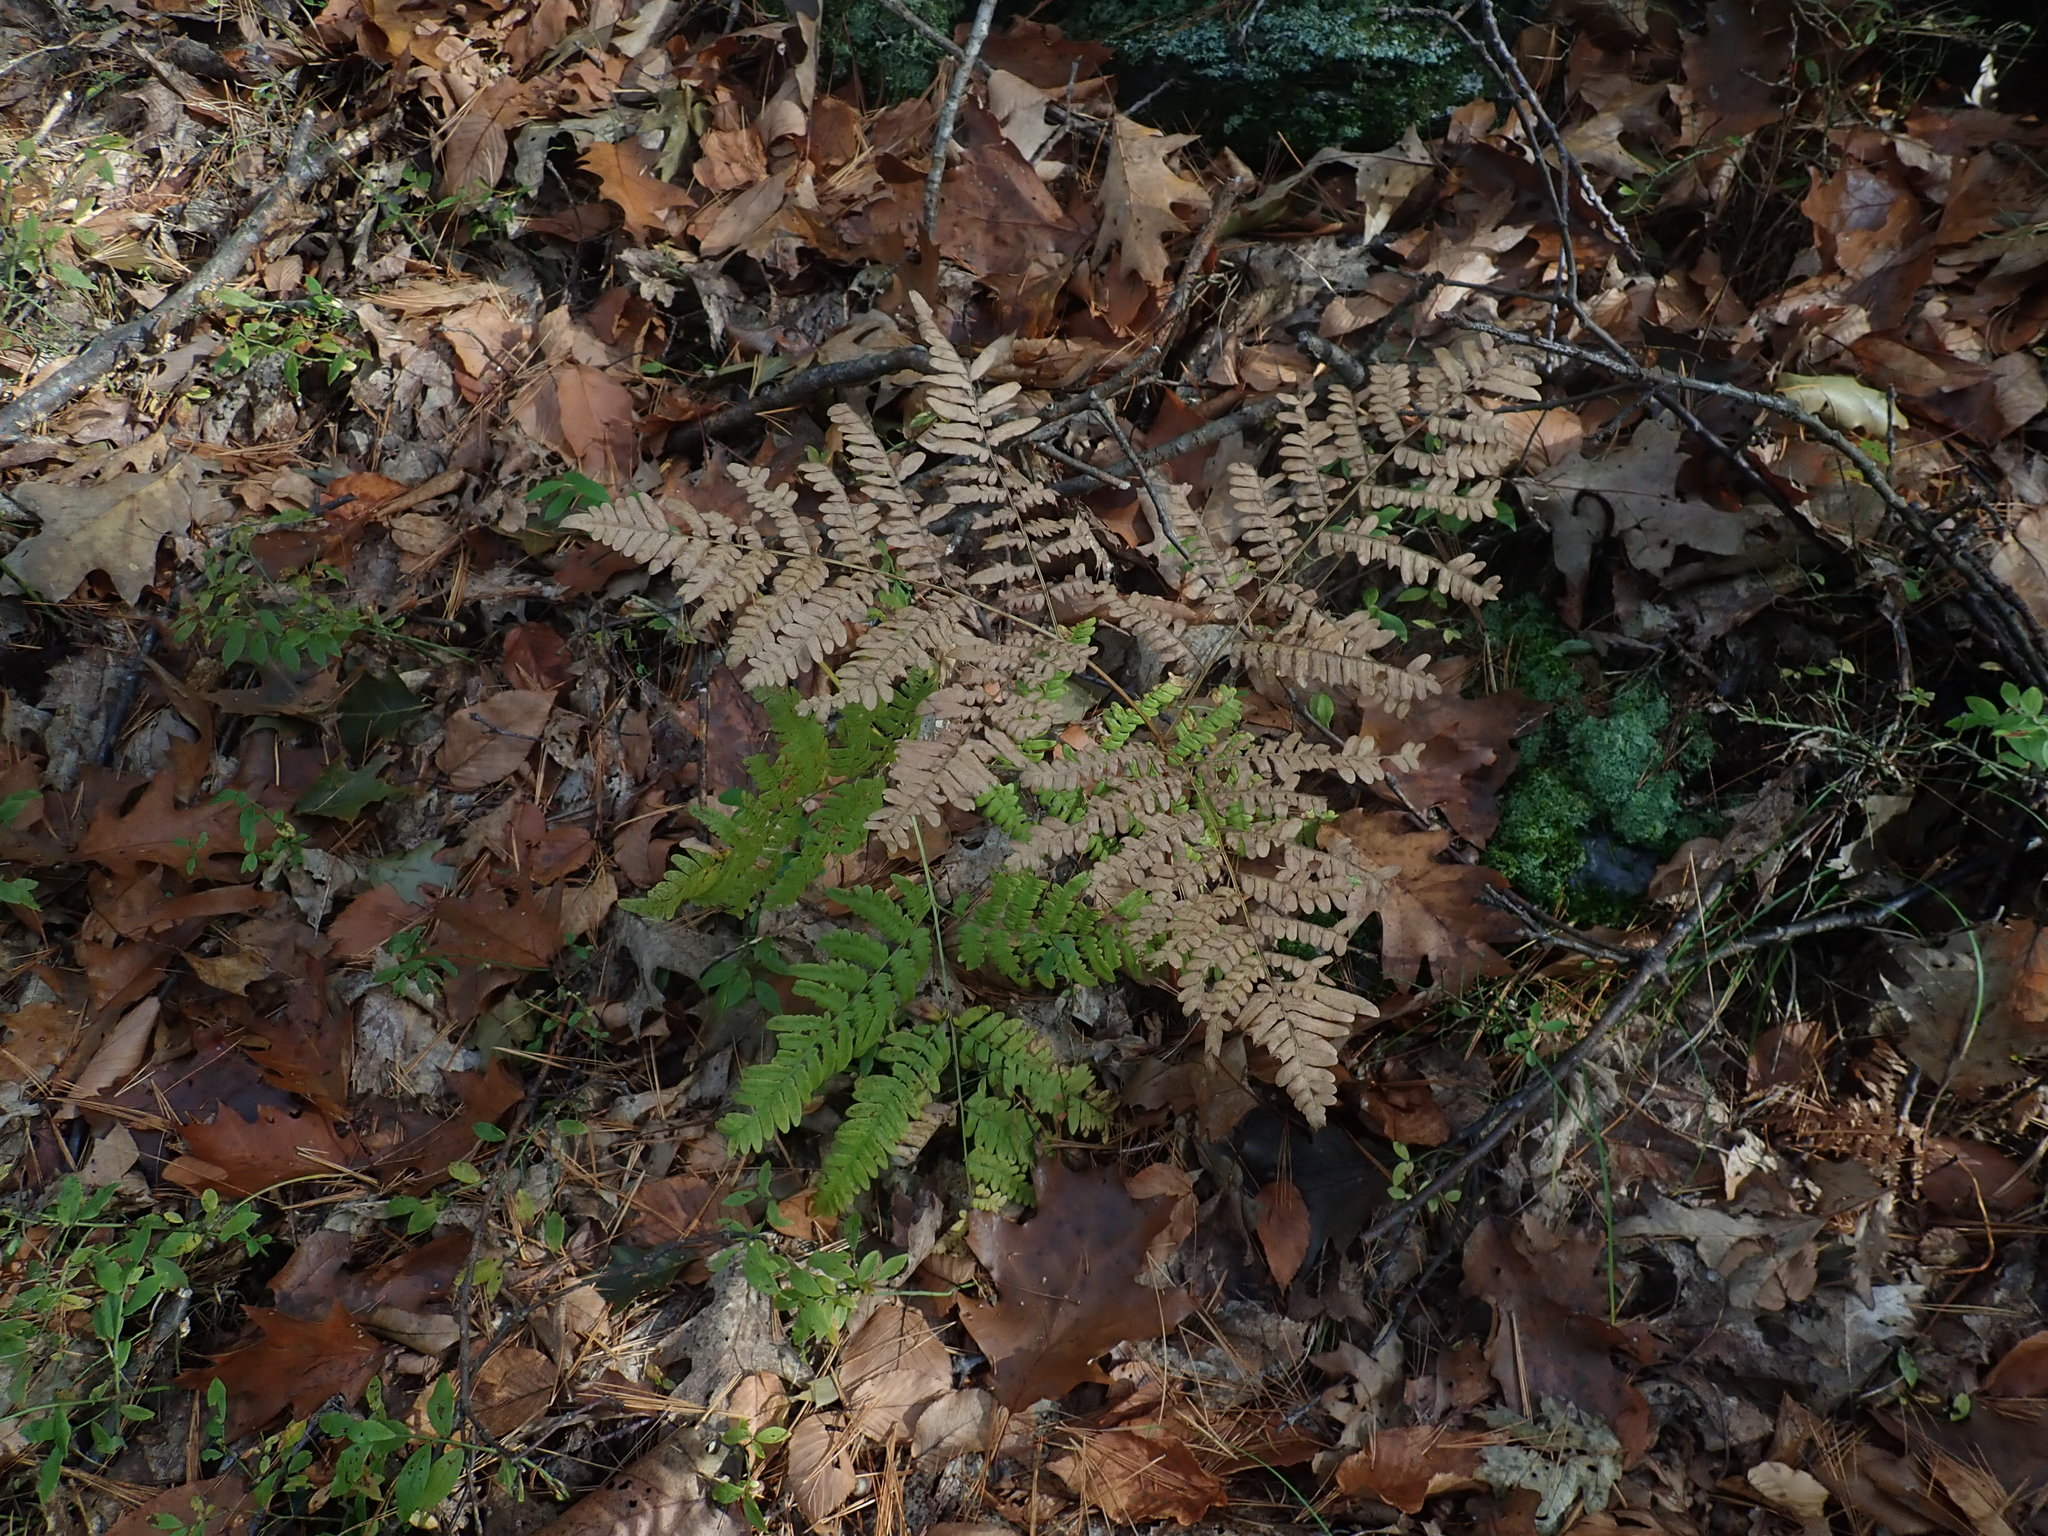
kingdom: Plantae
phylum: Tracheophyta
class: Polypodiopsida
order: Polypodiales
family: Dennstaedtiaceae
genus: Pteridium
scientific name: Pteridium aquilinum
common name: Bracken
